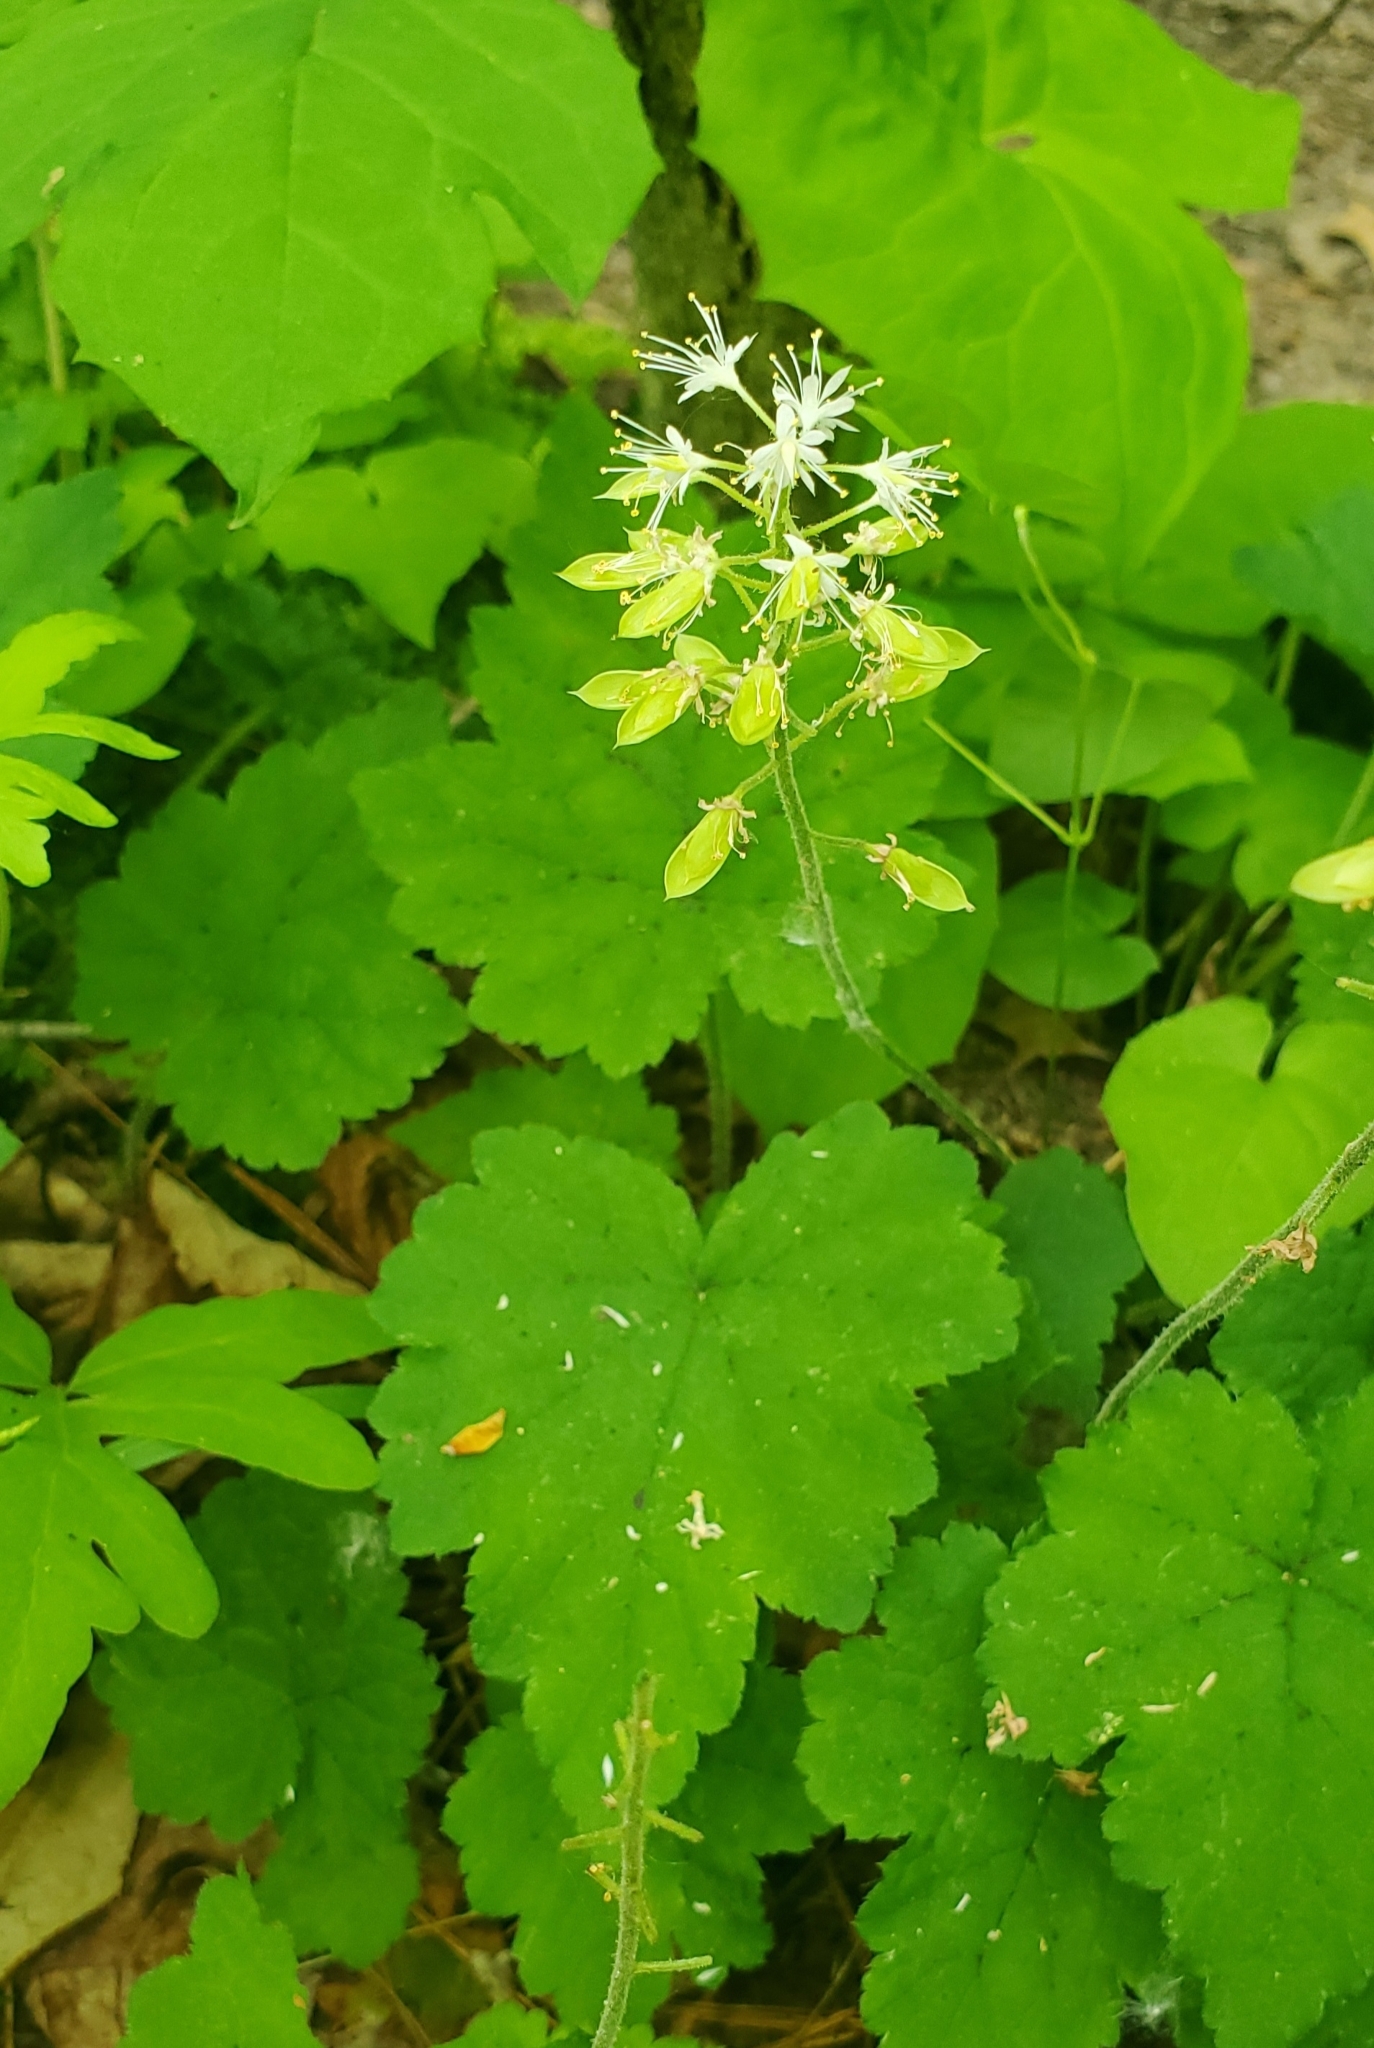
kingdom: Plantae
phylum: Tracheophyta
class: Magnoliopsida
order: Saxifragales
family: Saxifragaceae
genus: Tiarella
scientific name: Tiarella stolonifera
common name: Stoloniferous foamflower
